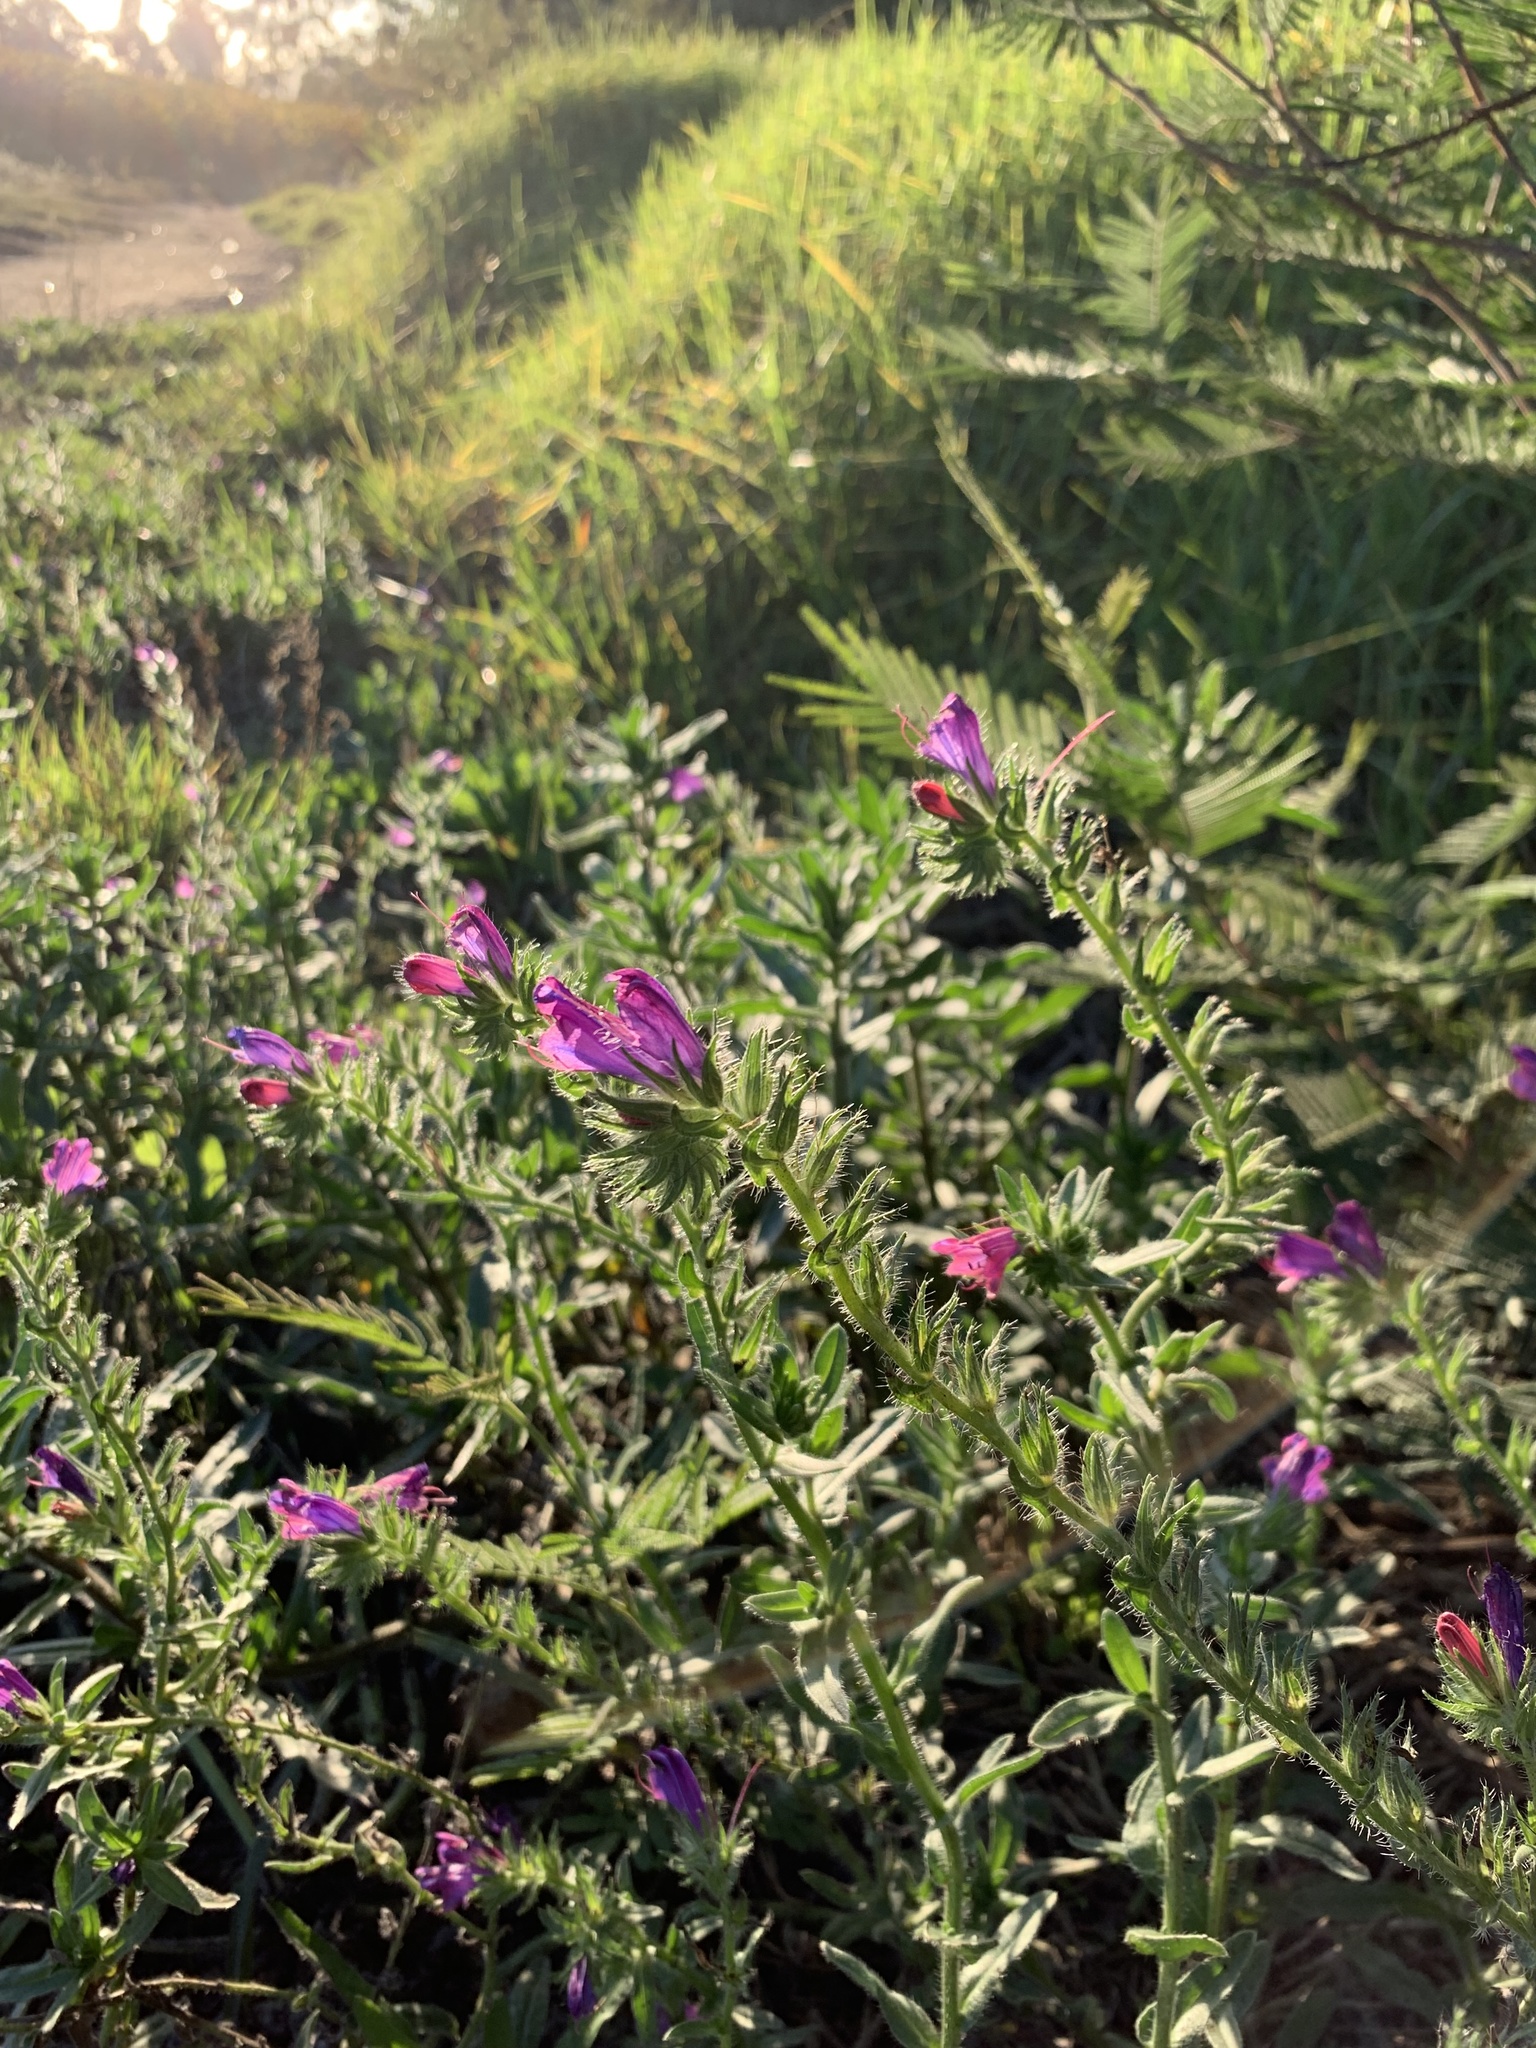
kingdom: Plantae
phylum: Tracheophyta
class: Magnoliopsida
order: Boraginales
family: Boraginaceae
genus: Echium
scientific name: Echium plantagineum
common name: Purple viper's-bugloss
